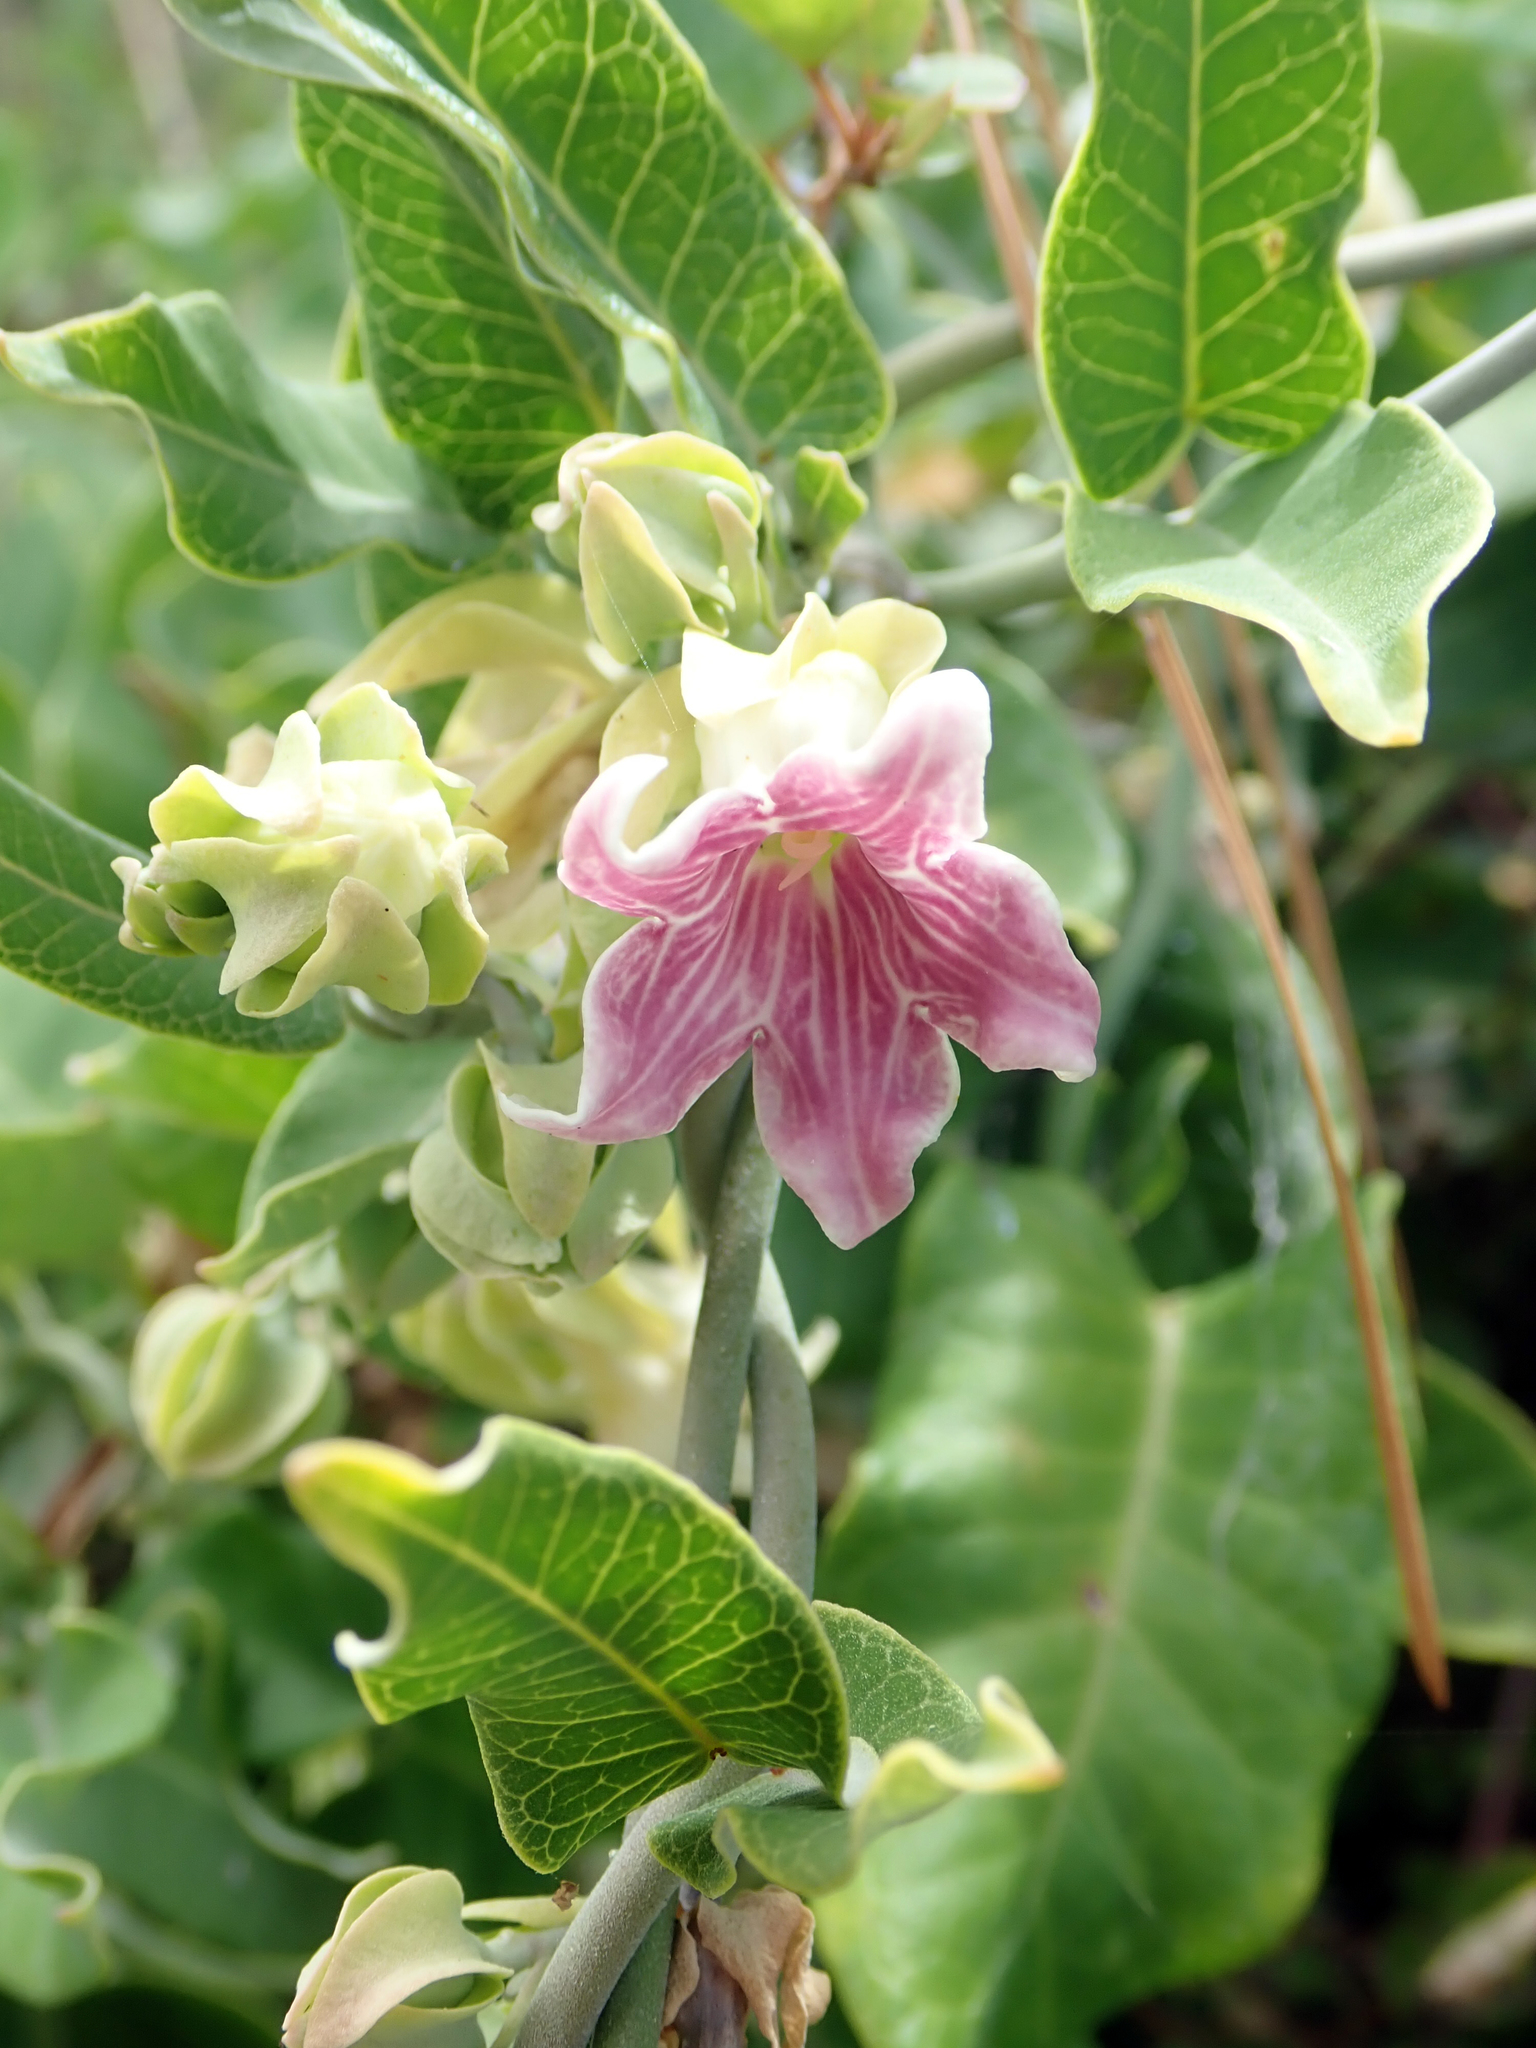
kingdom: Plantae
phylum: Tracheophyta
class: Magnoliopsida
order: Gentianales
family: Apocynaceae
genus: Araujia
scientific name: Araujia sericifera
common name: White bladderflower
